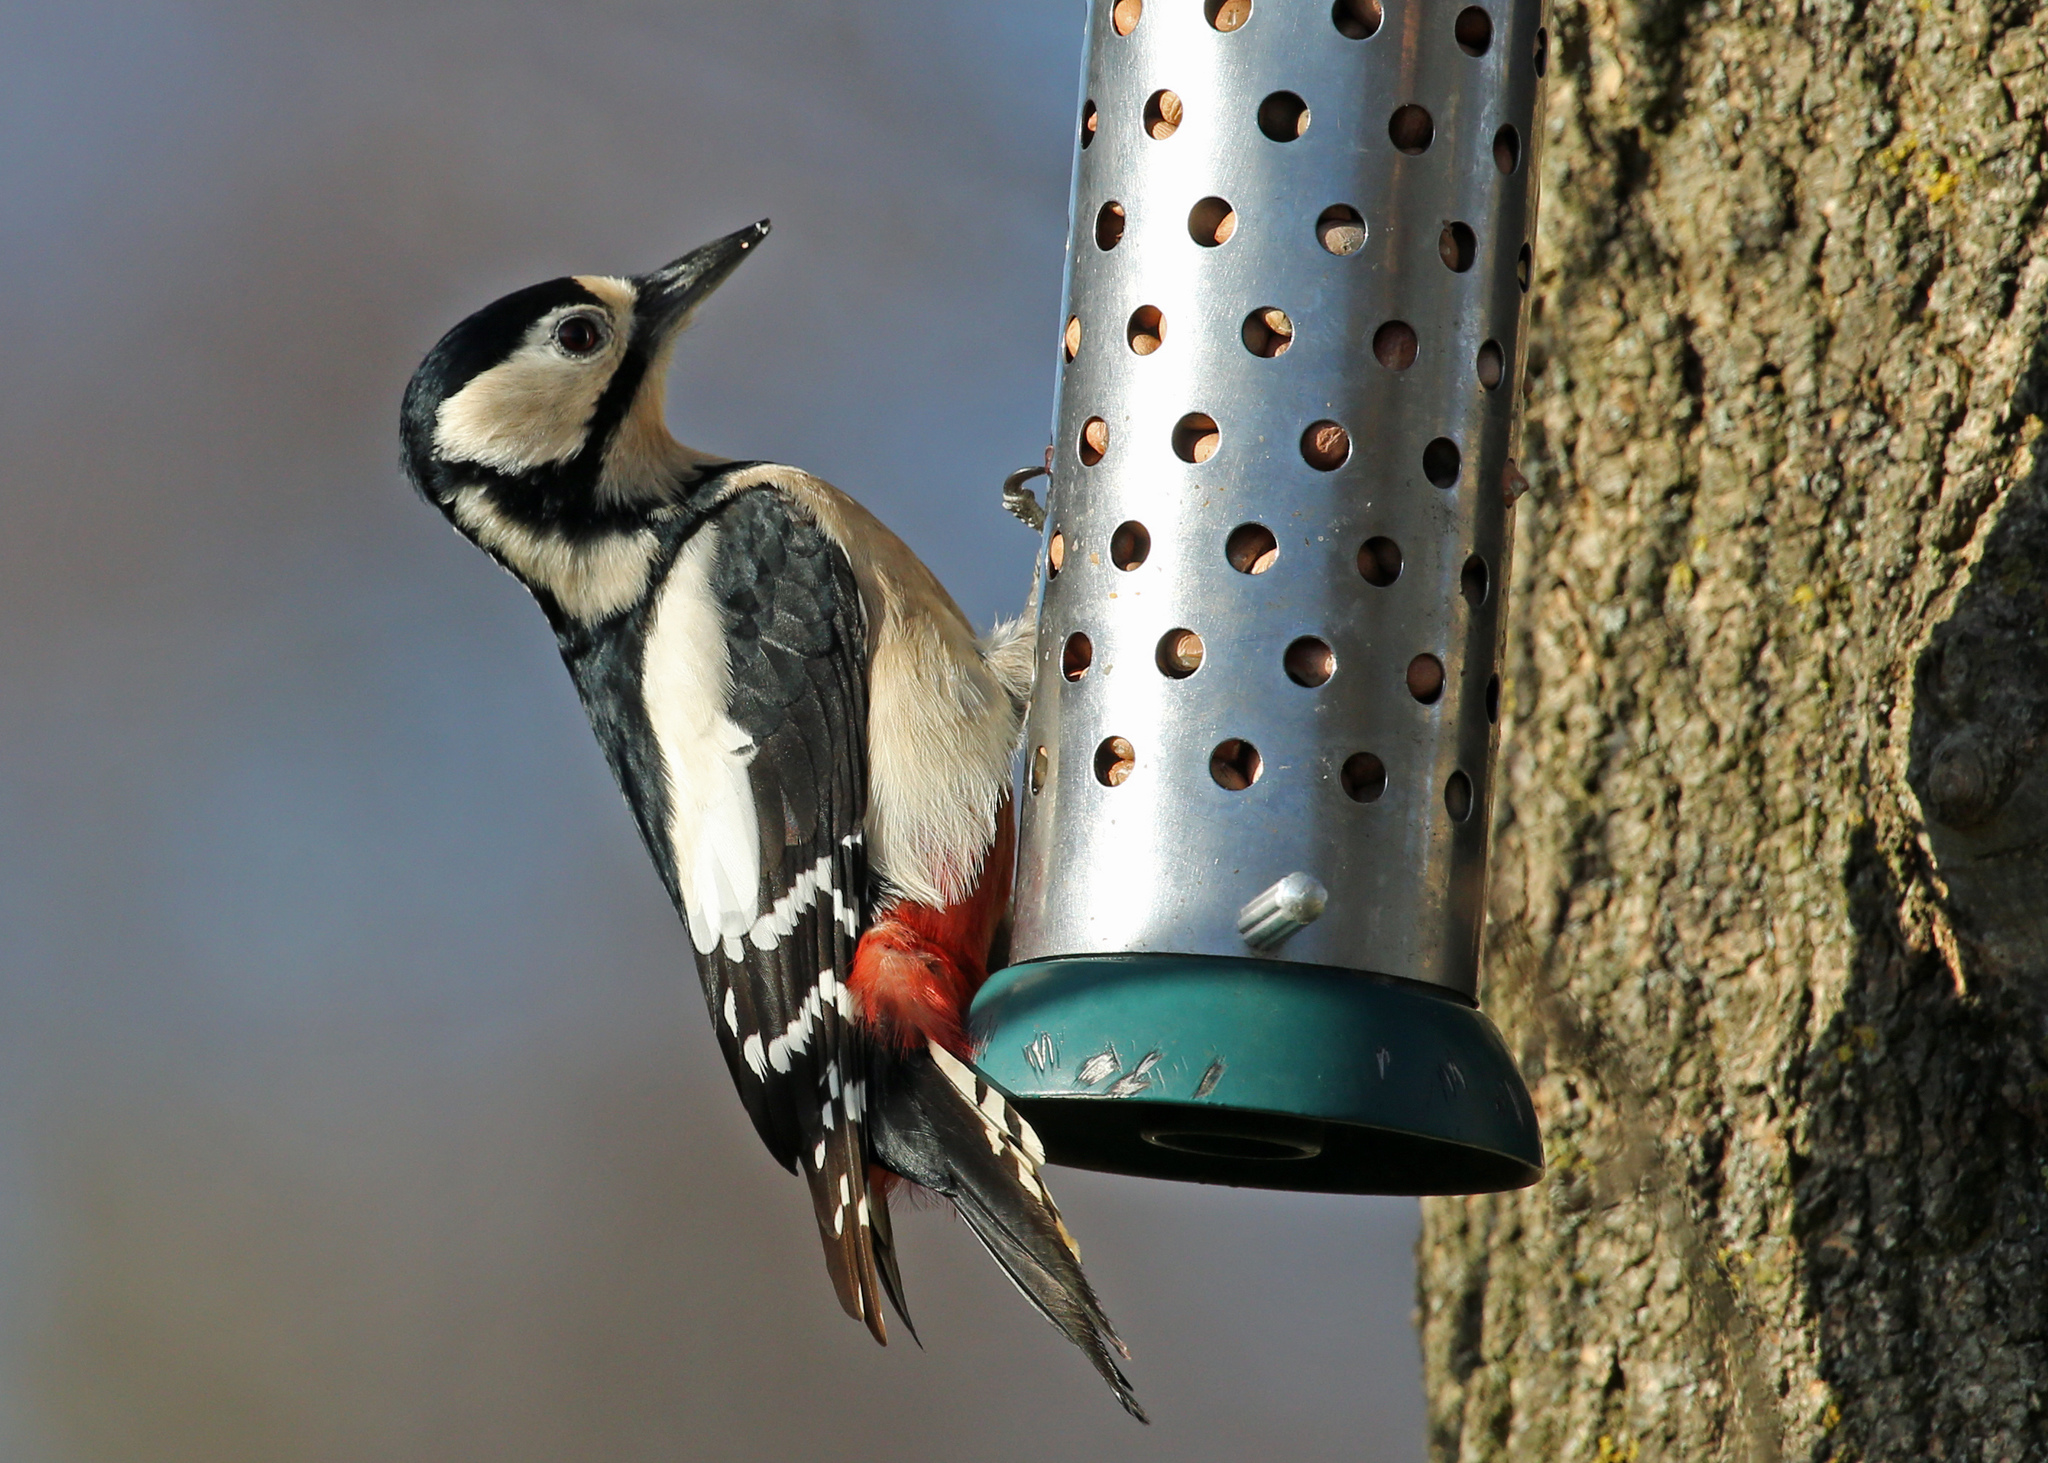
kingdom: Animalia
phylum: Chordata
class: Aves
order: Piciformes
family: Picidae
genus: Dendrocopos
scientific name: Dendrocopos major
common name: Great spotted woodpecker
